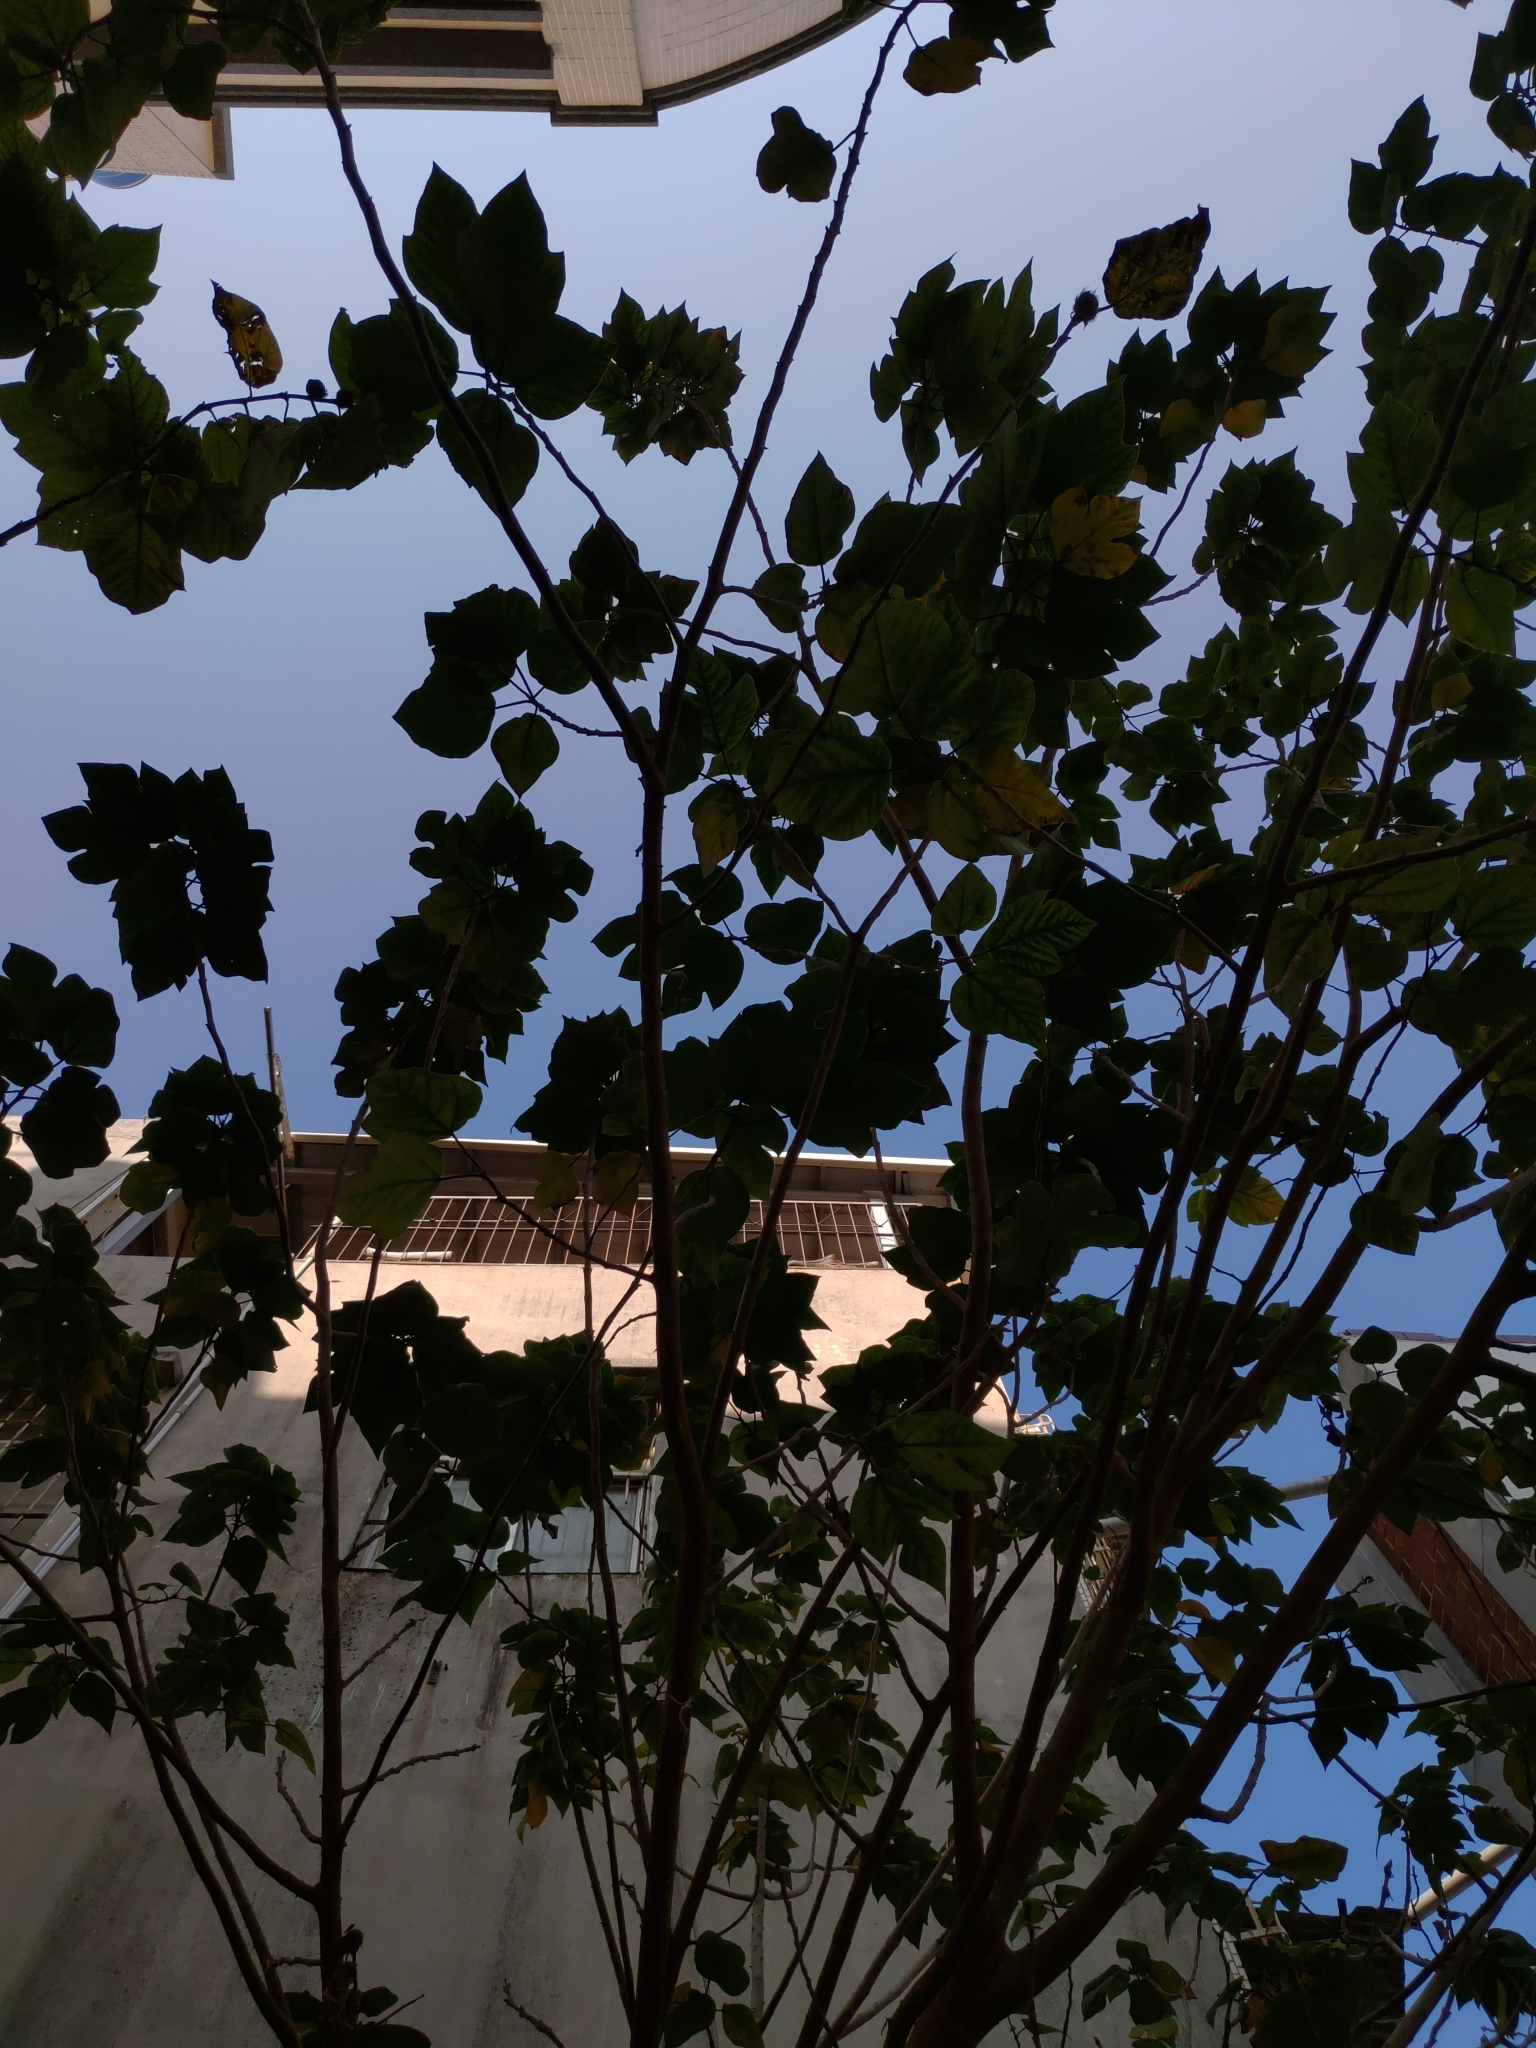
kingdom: Plantae
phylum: Tracheophyta
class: Magnoliopsida
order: Rosales
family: Moraceae
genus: Broussonetia
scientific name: Broussonetia papyrifera
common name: Paper mulberry
